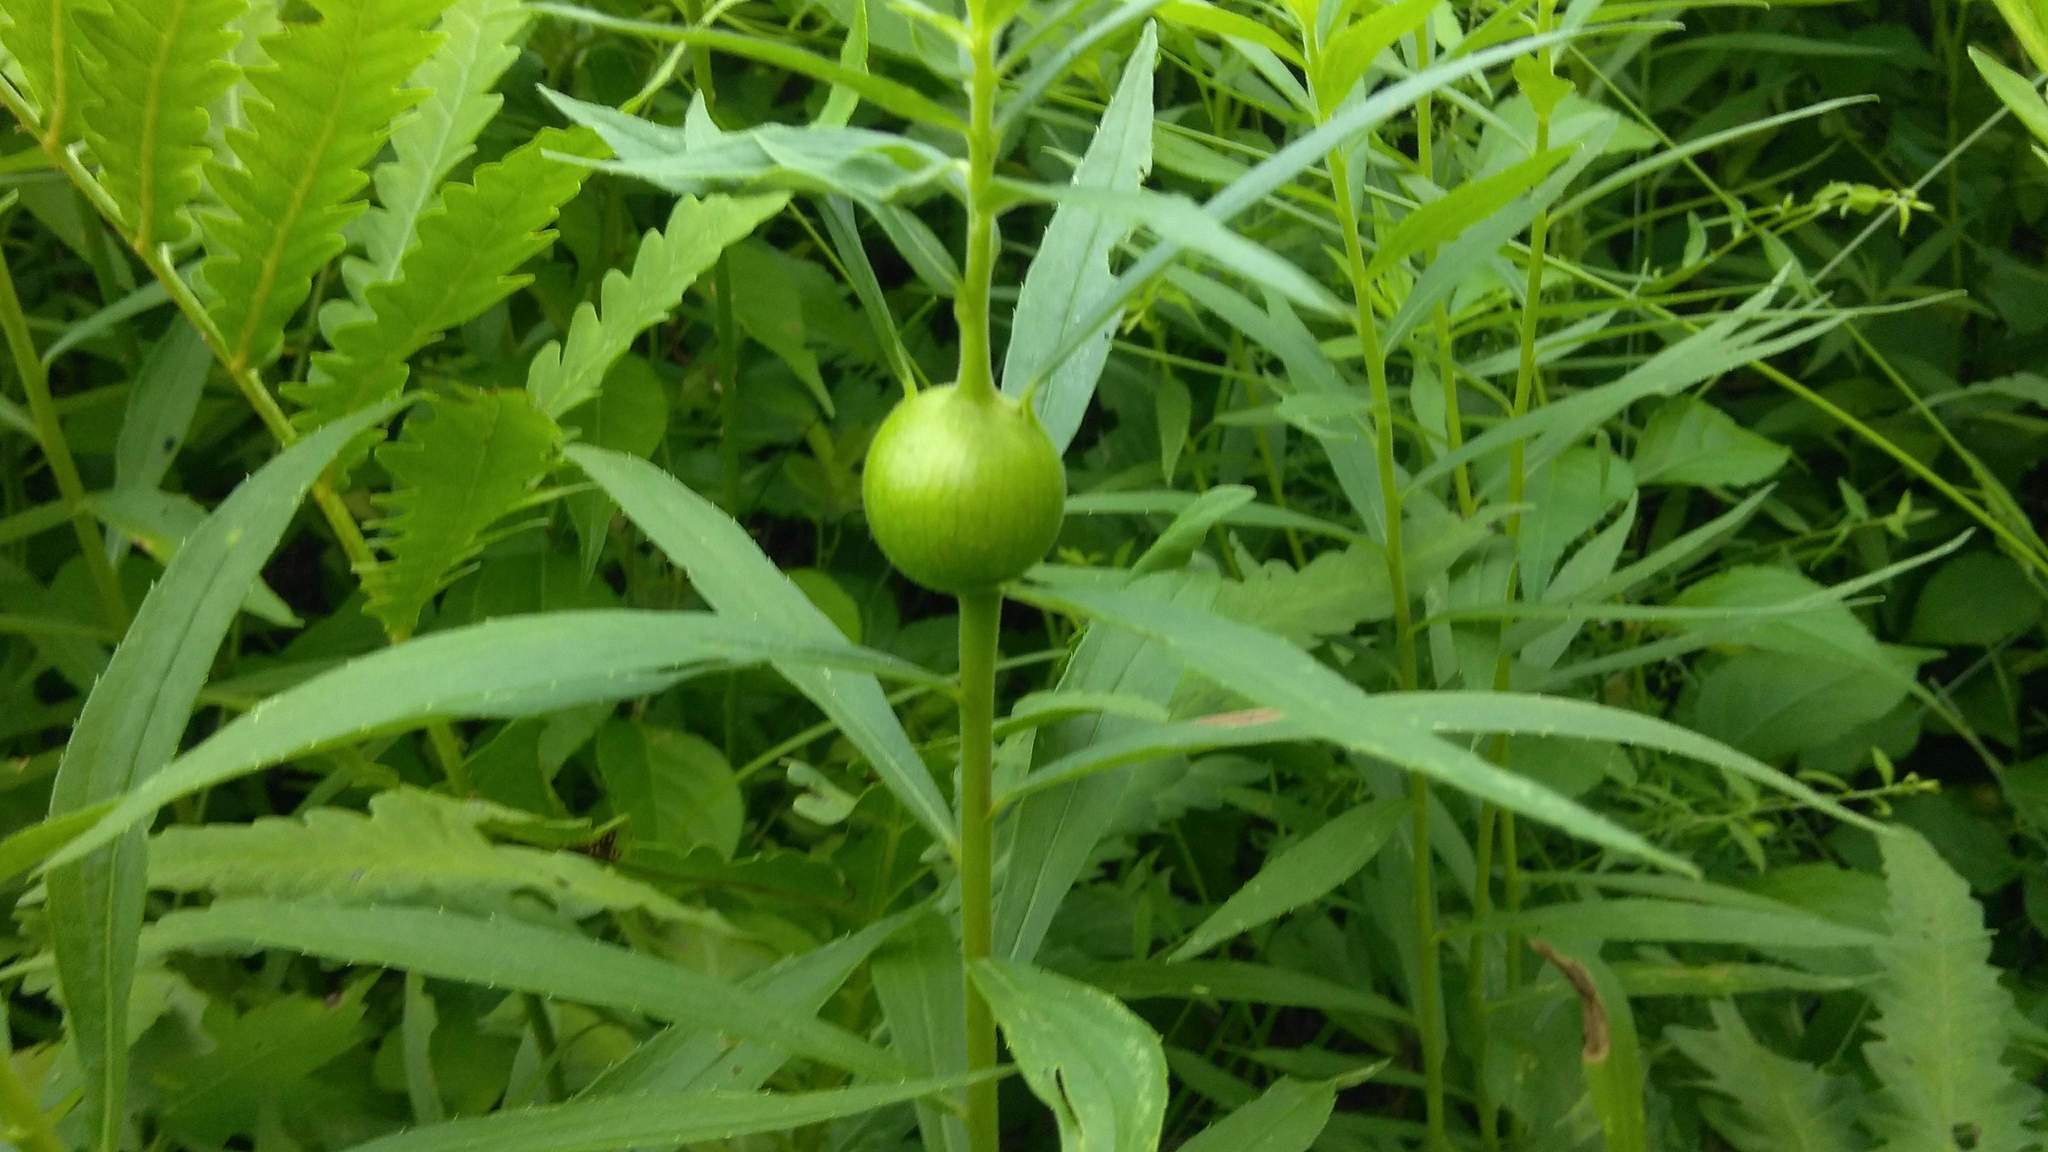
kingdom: Animalia
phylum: Arthropoda
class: Insecta
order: Diptera
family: Tephritidae
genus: Eurosta
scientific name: Eurosta solidaginis
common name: Goldenrod gall fly
